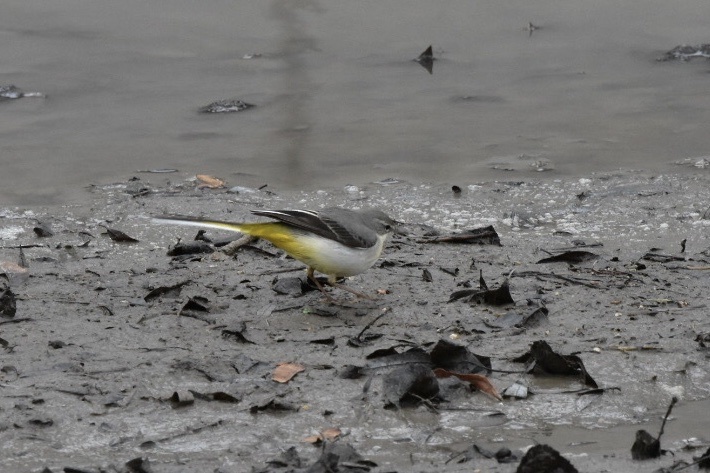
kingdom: Animalia
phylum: Chordata
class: Aves
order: Passeriformes
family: Motacillidae
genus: Motacilla
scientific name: Motacilla cinerea
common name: Grey wagtail
